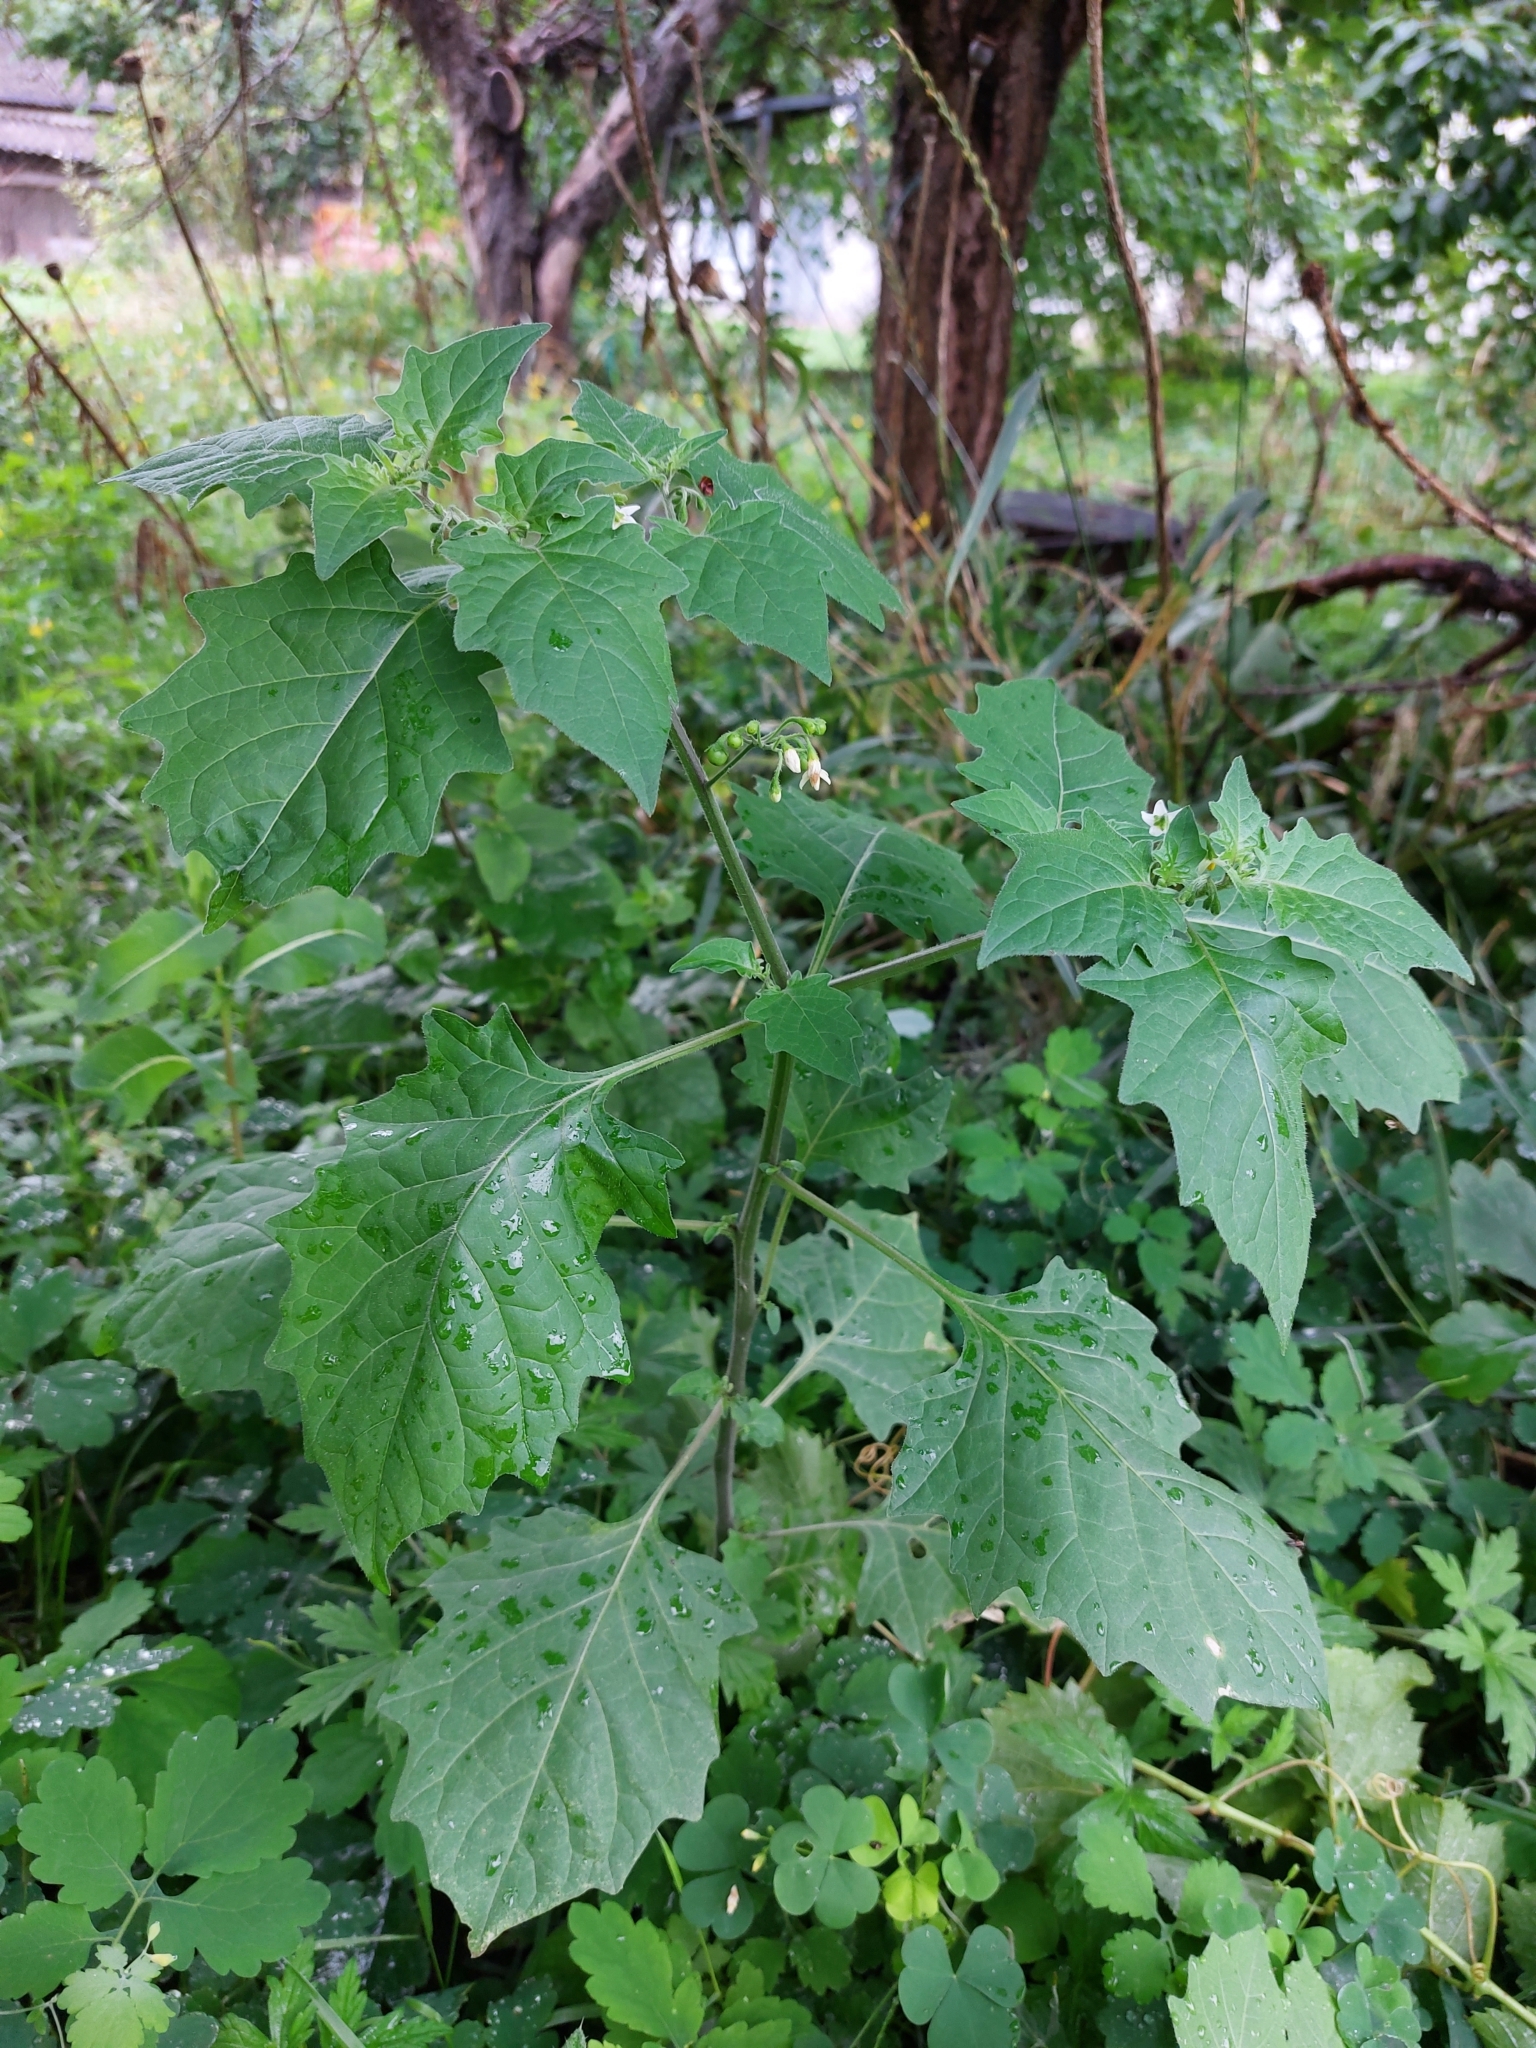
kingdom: Plantae
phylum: Tracheophyta
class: Magnoliopsida
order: Solanales
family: Solanaceae
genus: Solanum
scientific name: Solanum nigrum
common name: Black nightshade
